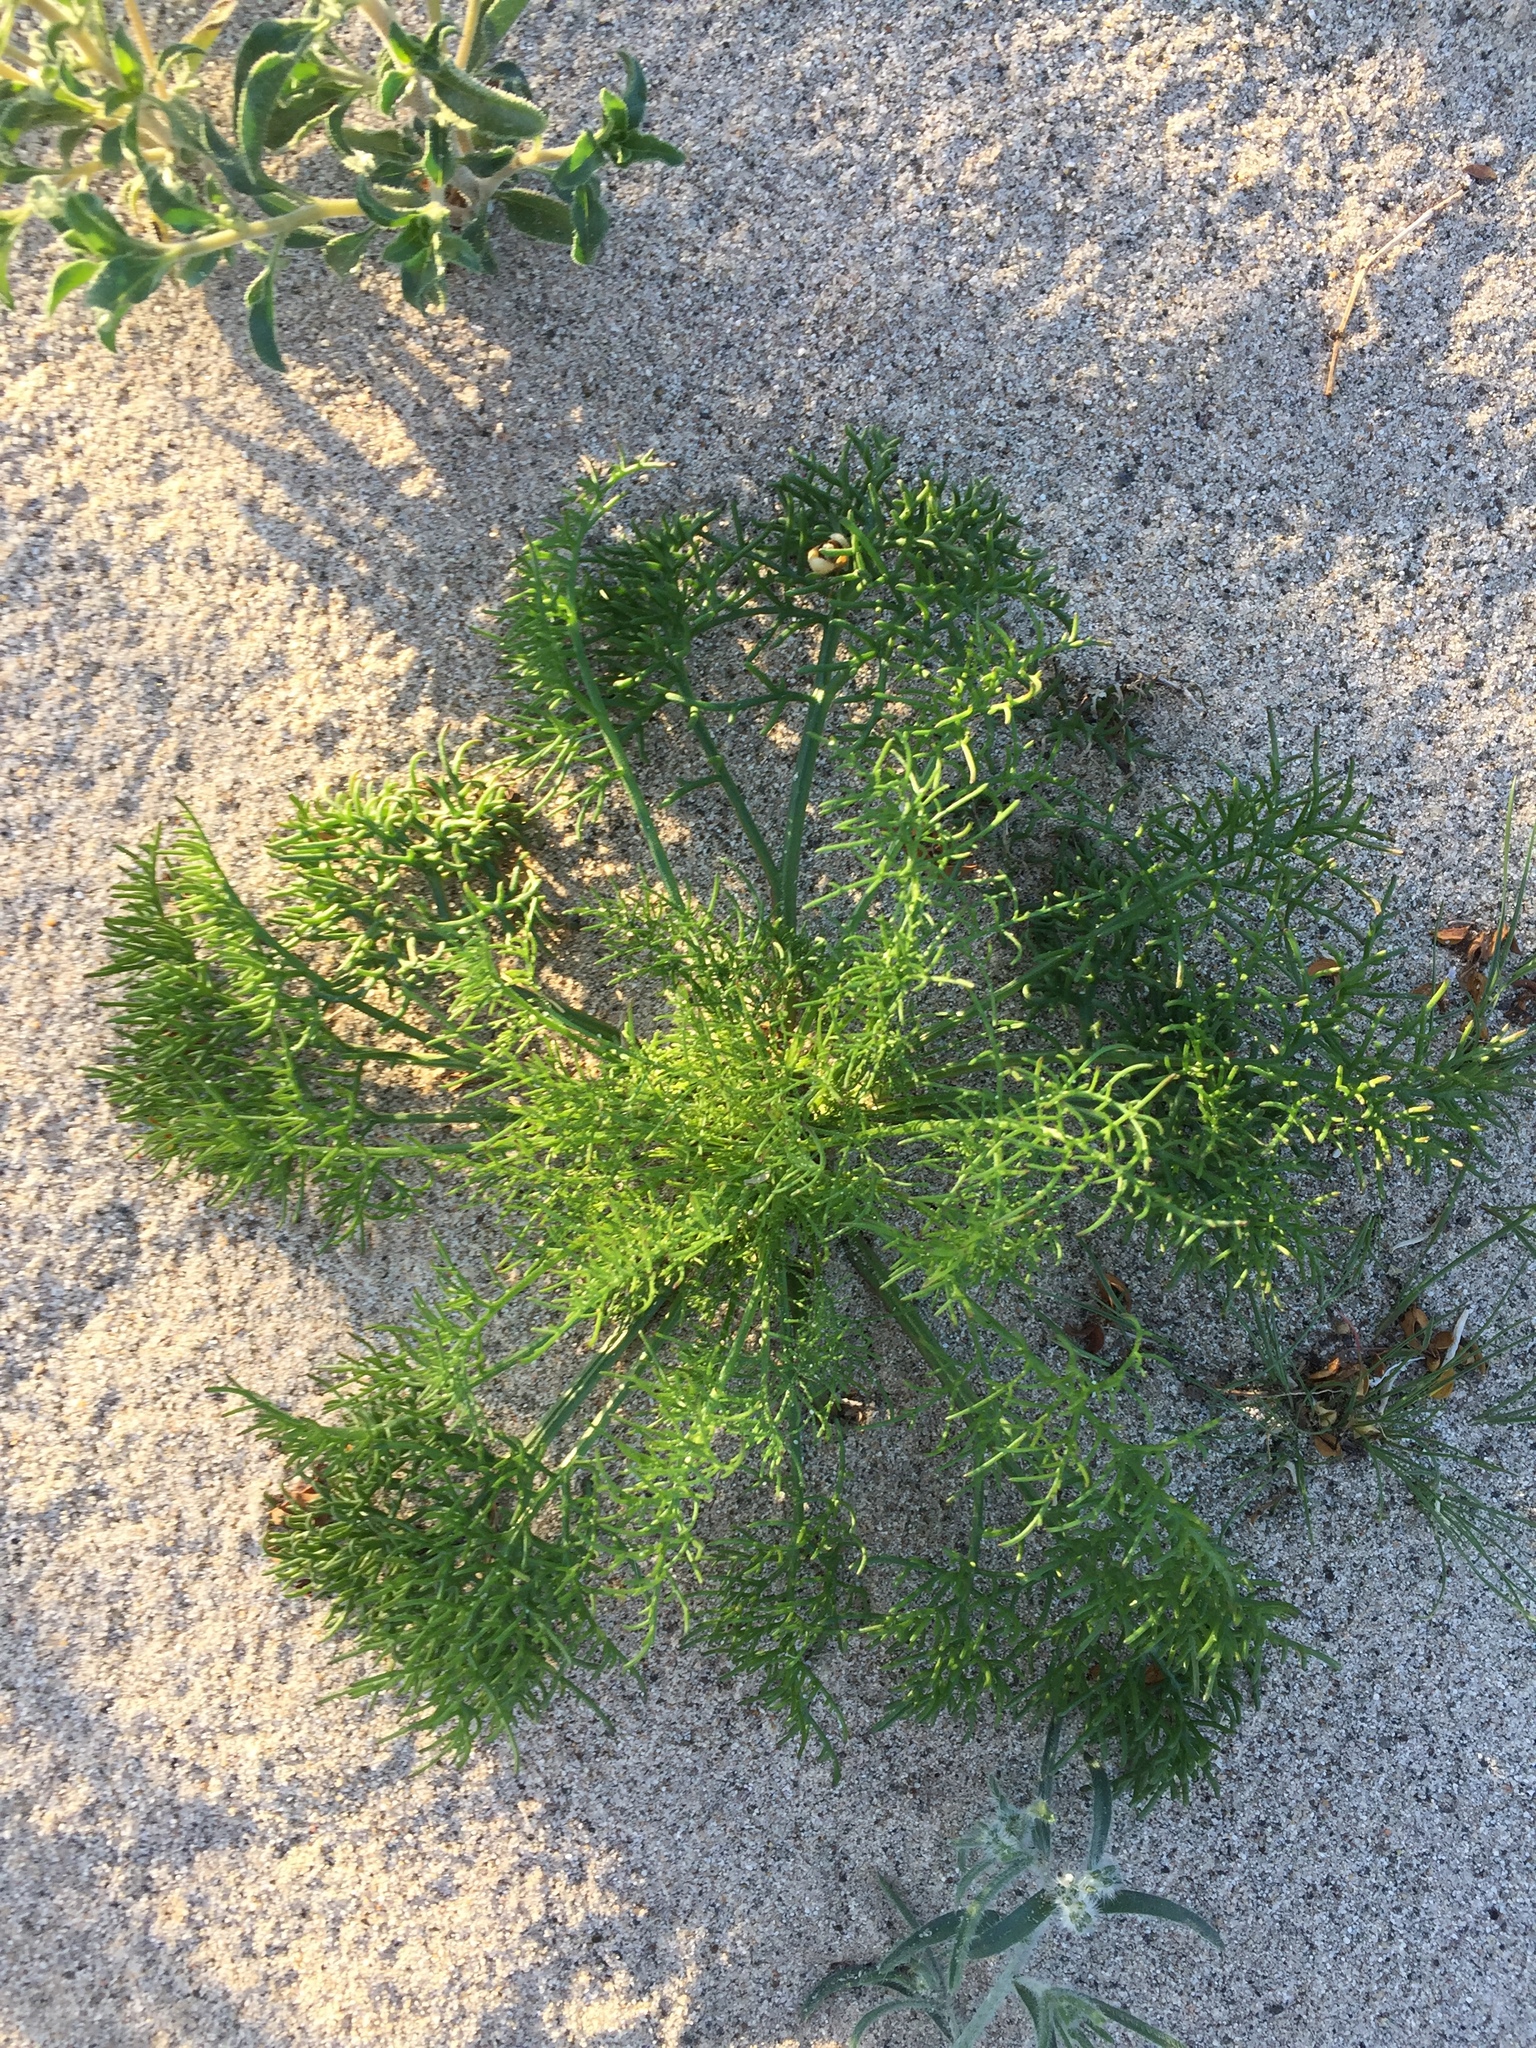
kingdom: Plantae
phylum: Tracheophyta
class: Magnoliopsida
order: Asterales
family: Asteraceae
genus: Chaenactis
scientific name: Chaenactis carphoclinia
